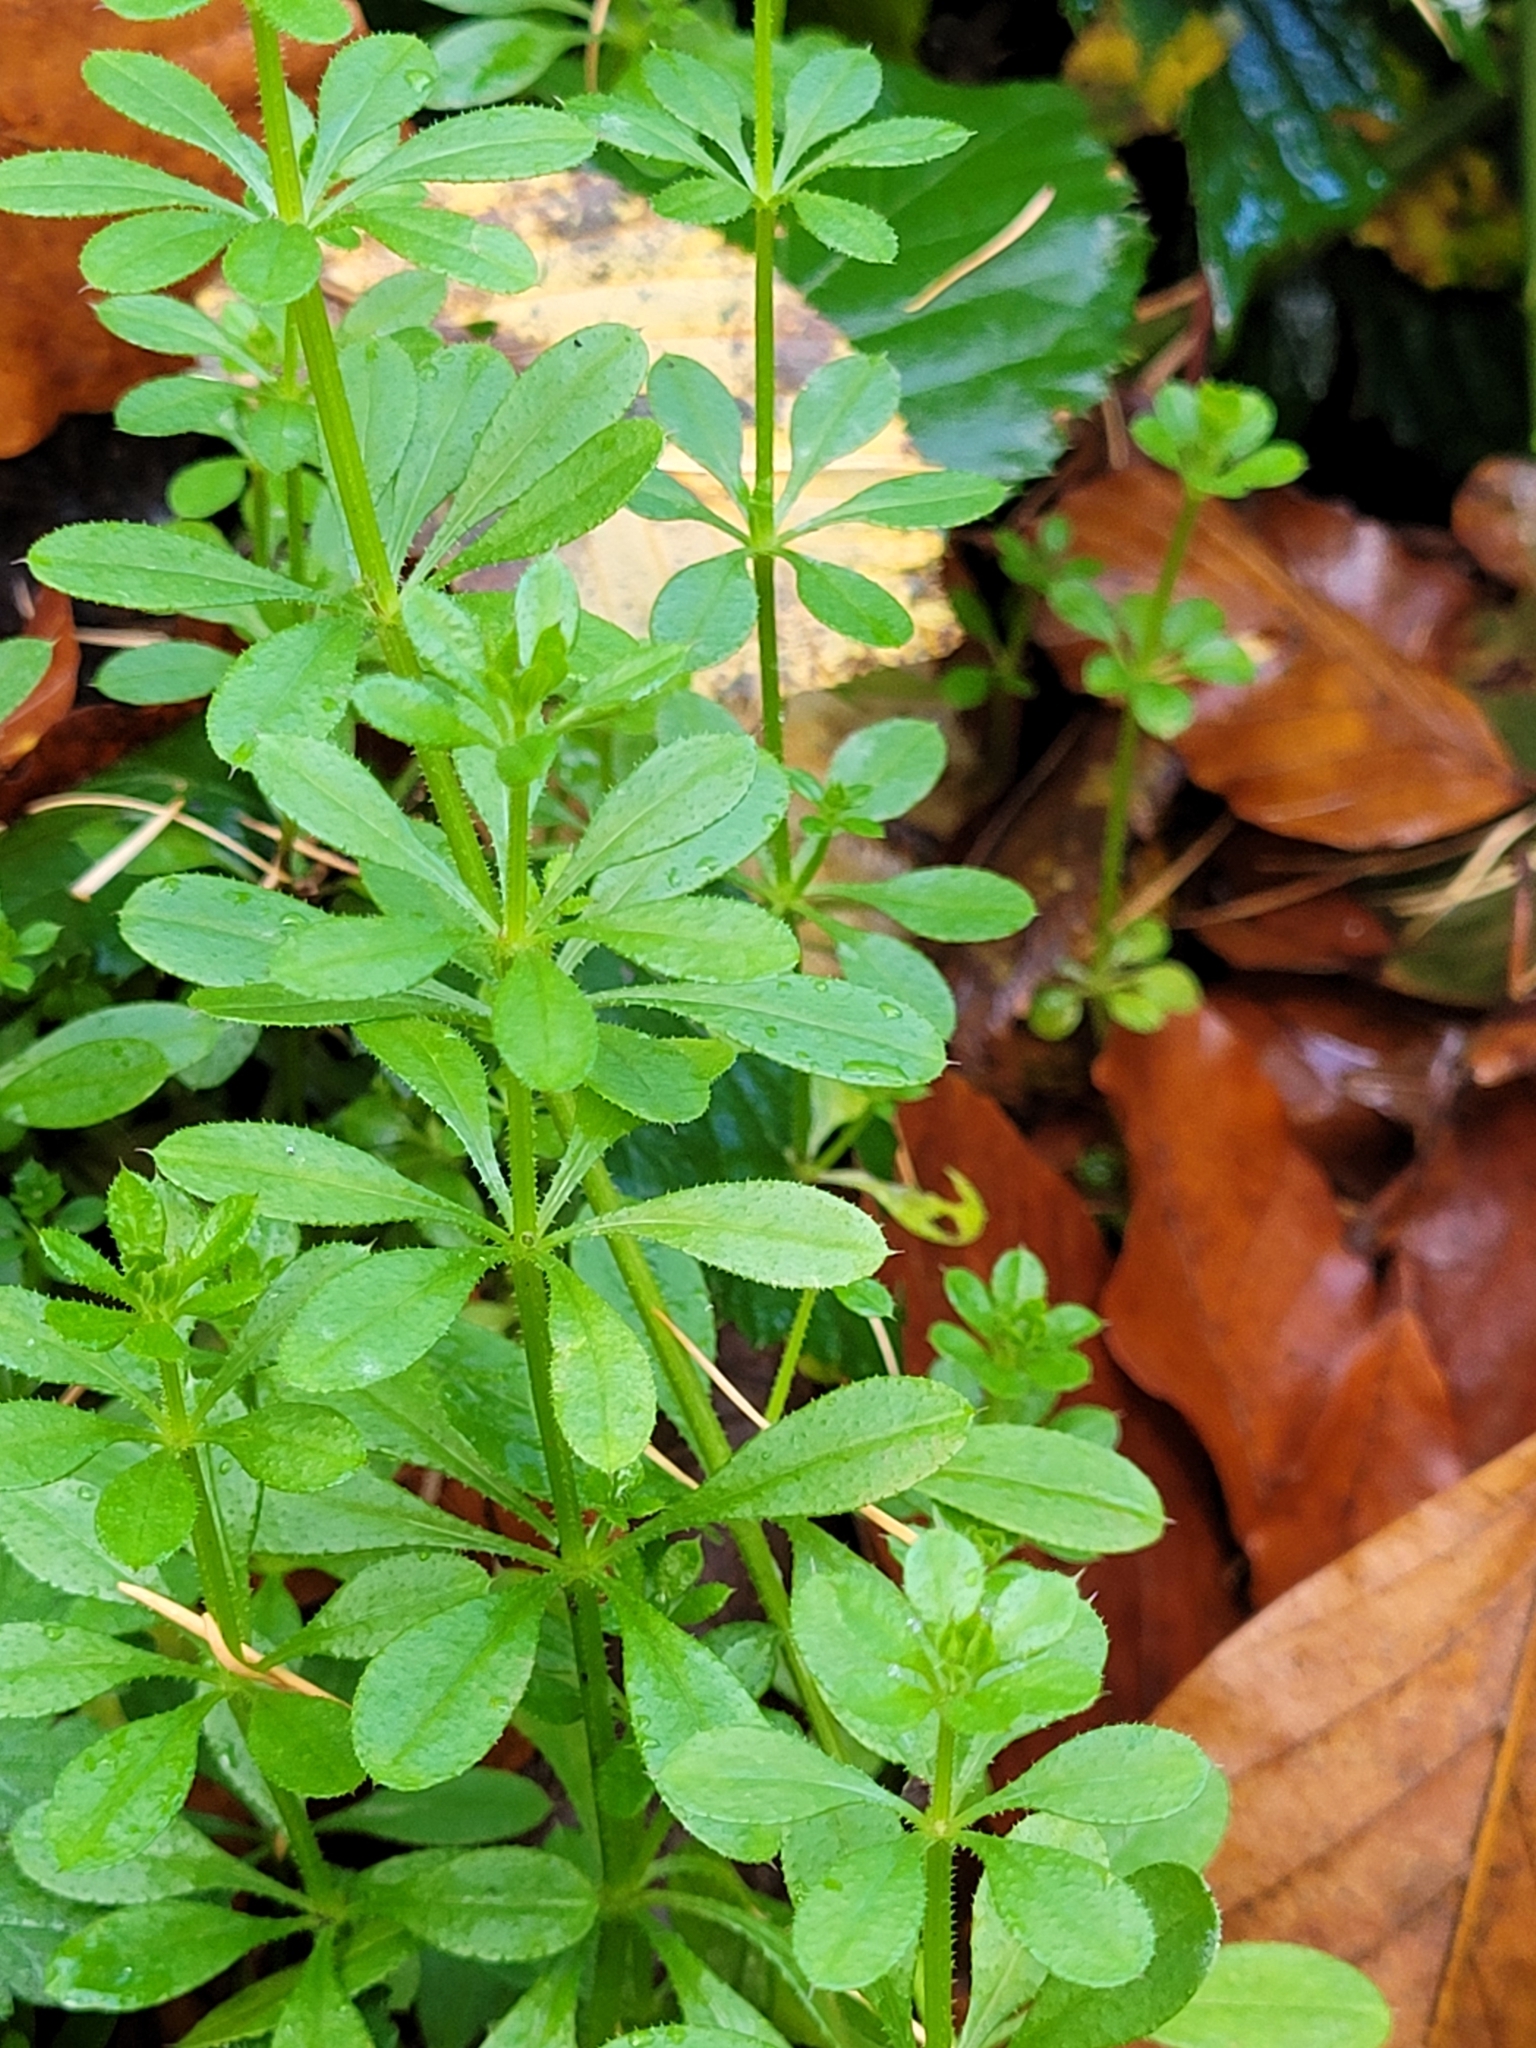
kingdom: Plantae
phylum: Tracheophyta
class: Magnoliopsida
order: Gentianales
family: Rubiaceae
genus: Galium
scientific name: Galium aparine
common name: Cleavers
